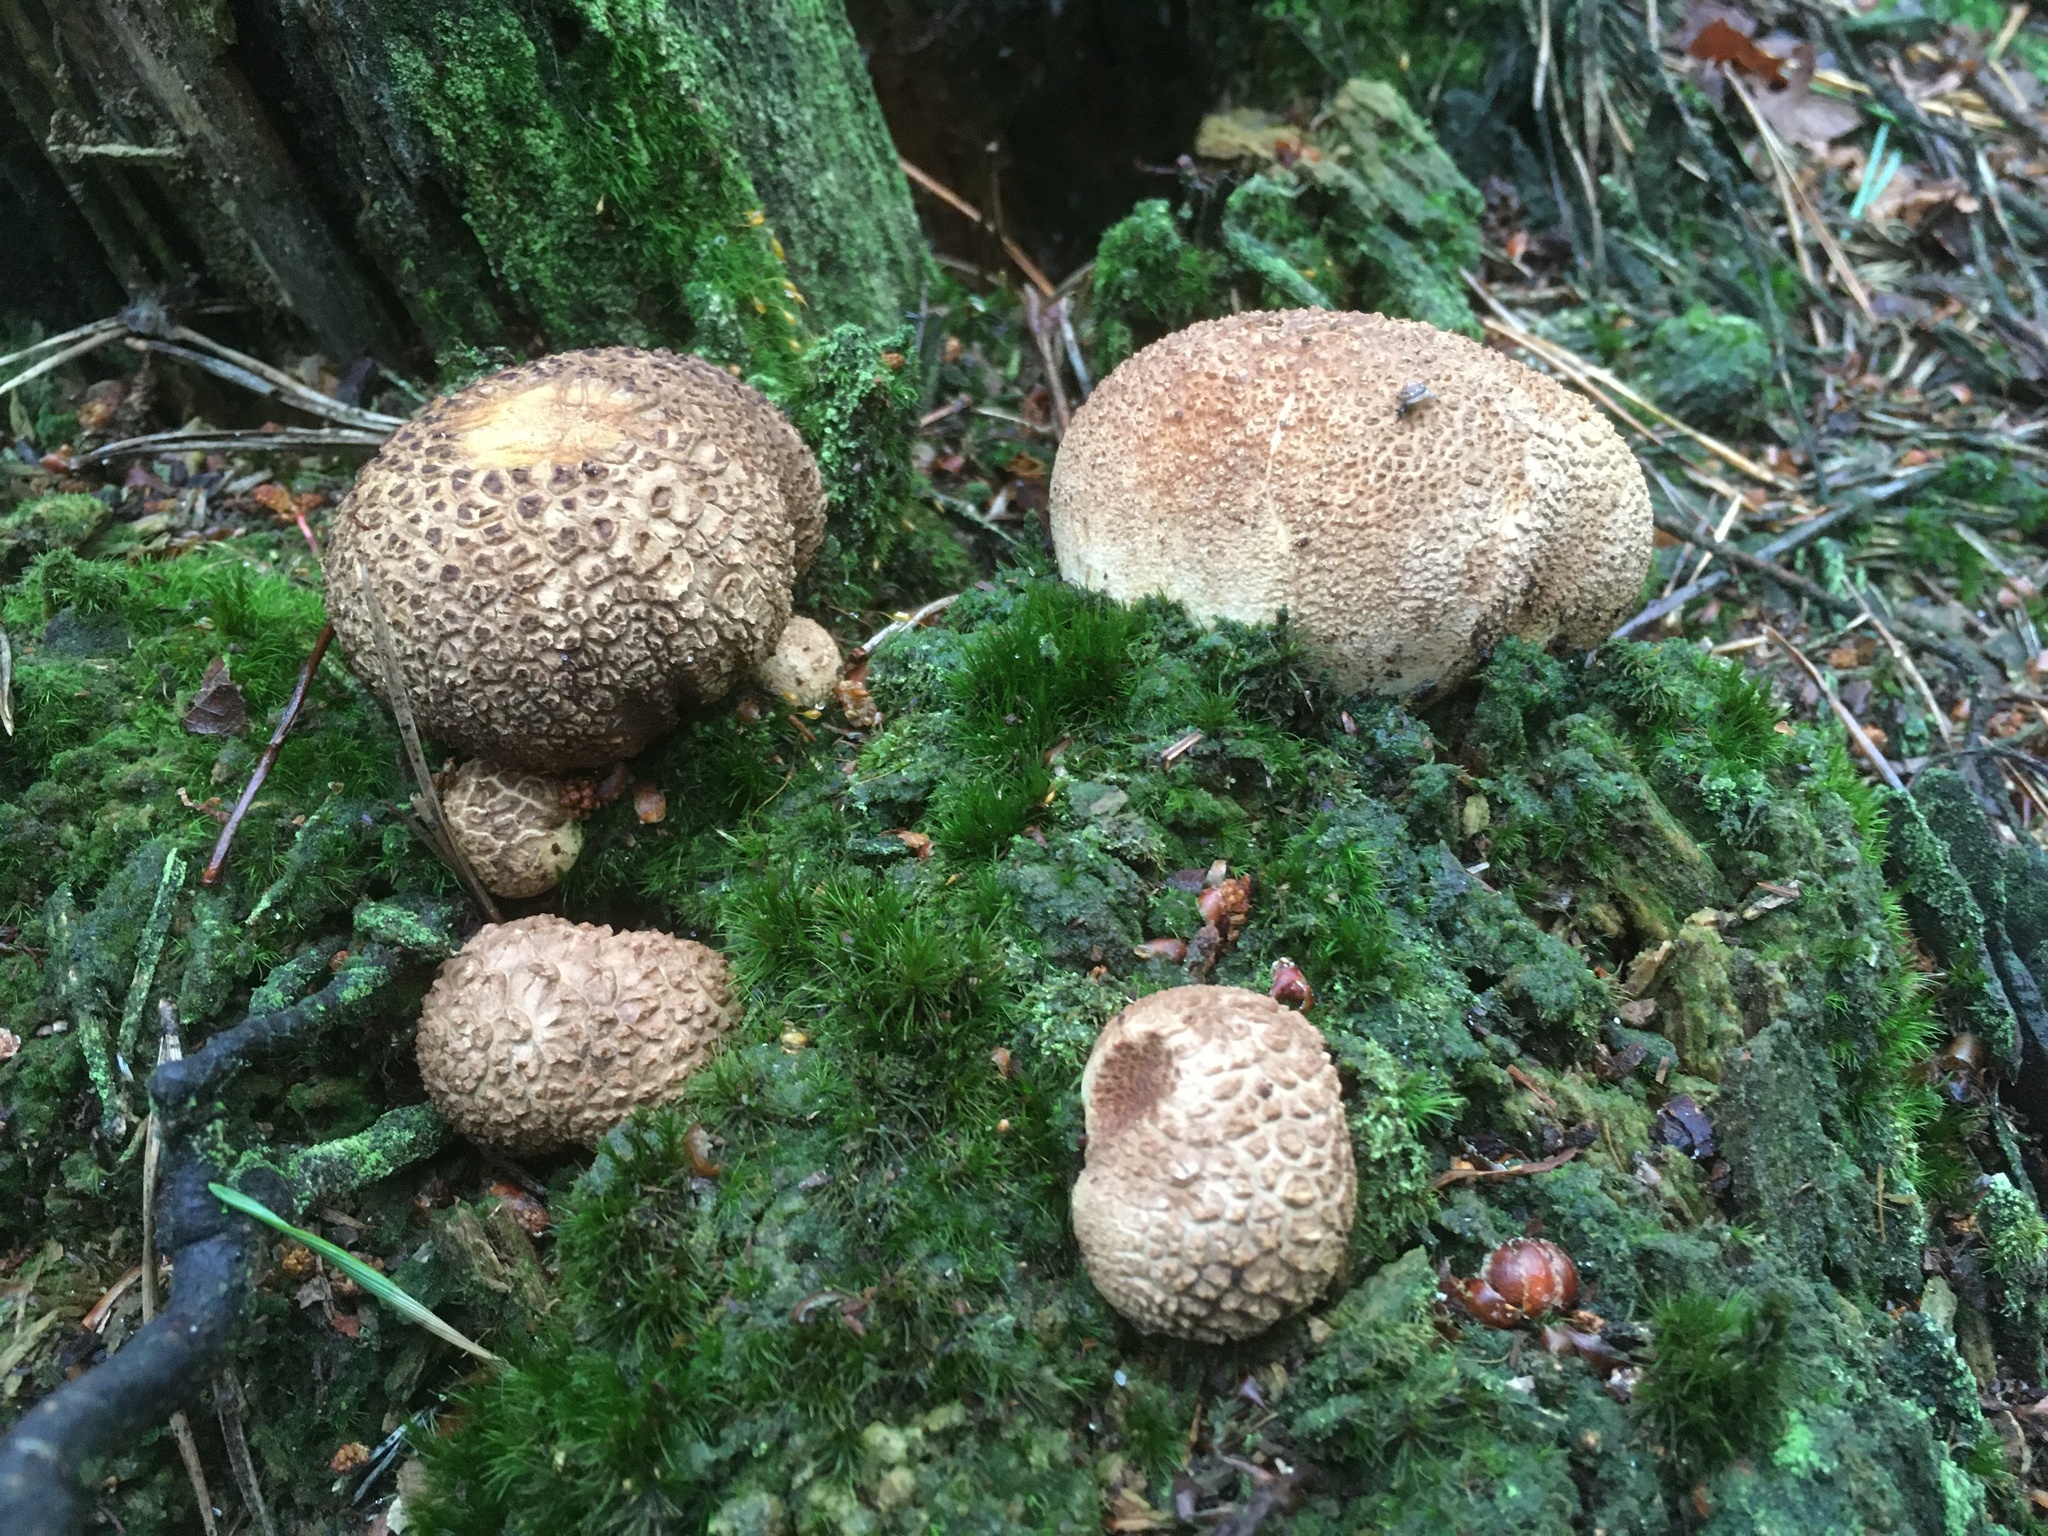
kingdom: Fungi
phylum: Basidiomycota
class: Agaricomycetes
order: Boletales
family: Sclerodermataceae
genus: Scleroderma
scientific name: Scleroderma citrinum
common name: Common earthball
